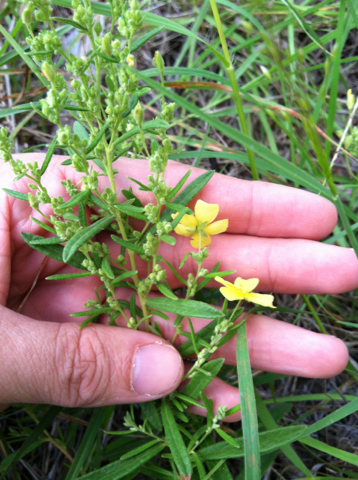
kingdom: Plantae
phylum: Tracheophyta
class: Magnoliopsida
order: Malvales
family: Cistaceae
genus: Crocanthemum
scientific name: Crocanthemum rosmarinifolium
